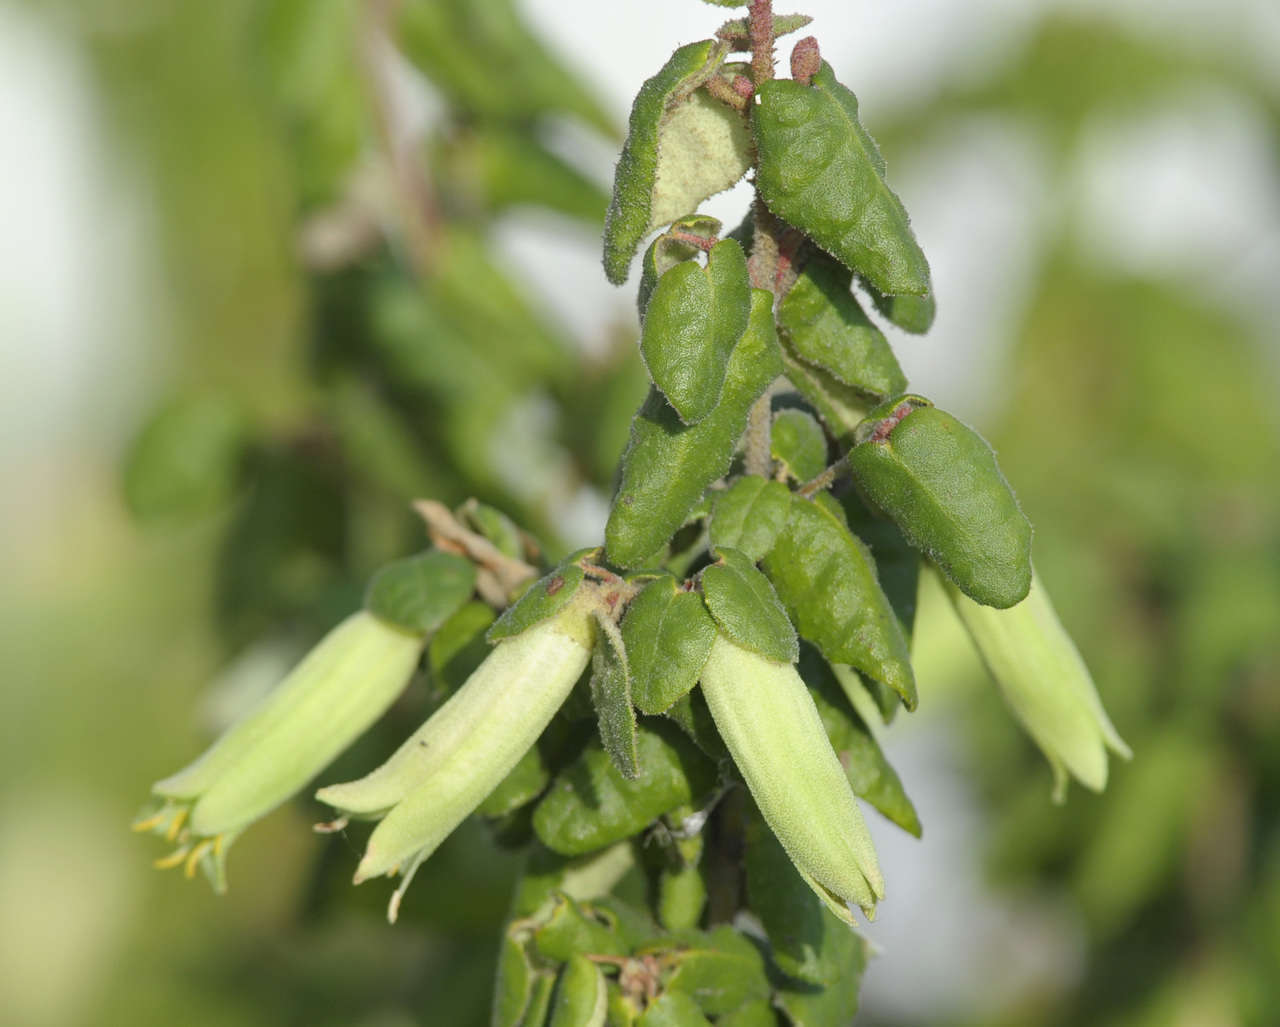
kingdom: Plantae
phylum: Tracheophyta
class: Magnoliopsida
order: Sapindales
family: Rutaceae
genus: Correa
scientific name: Correa reflexa
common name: Common correa
